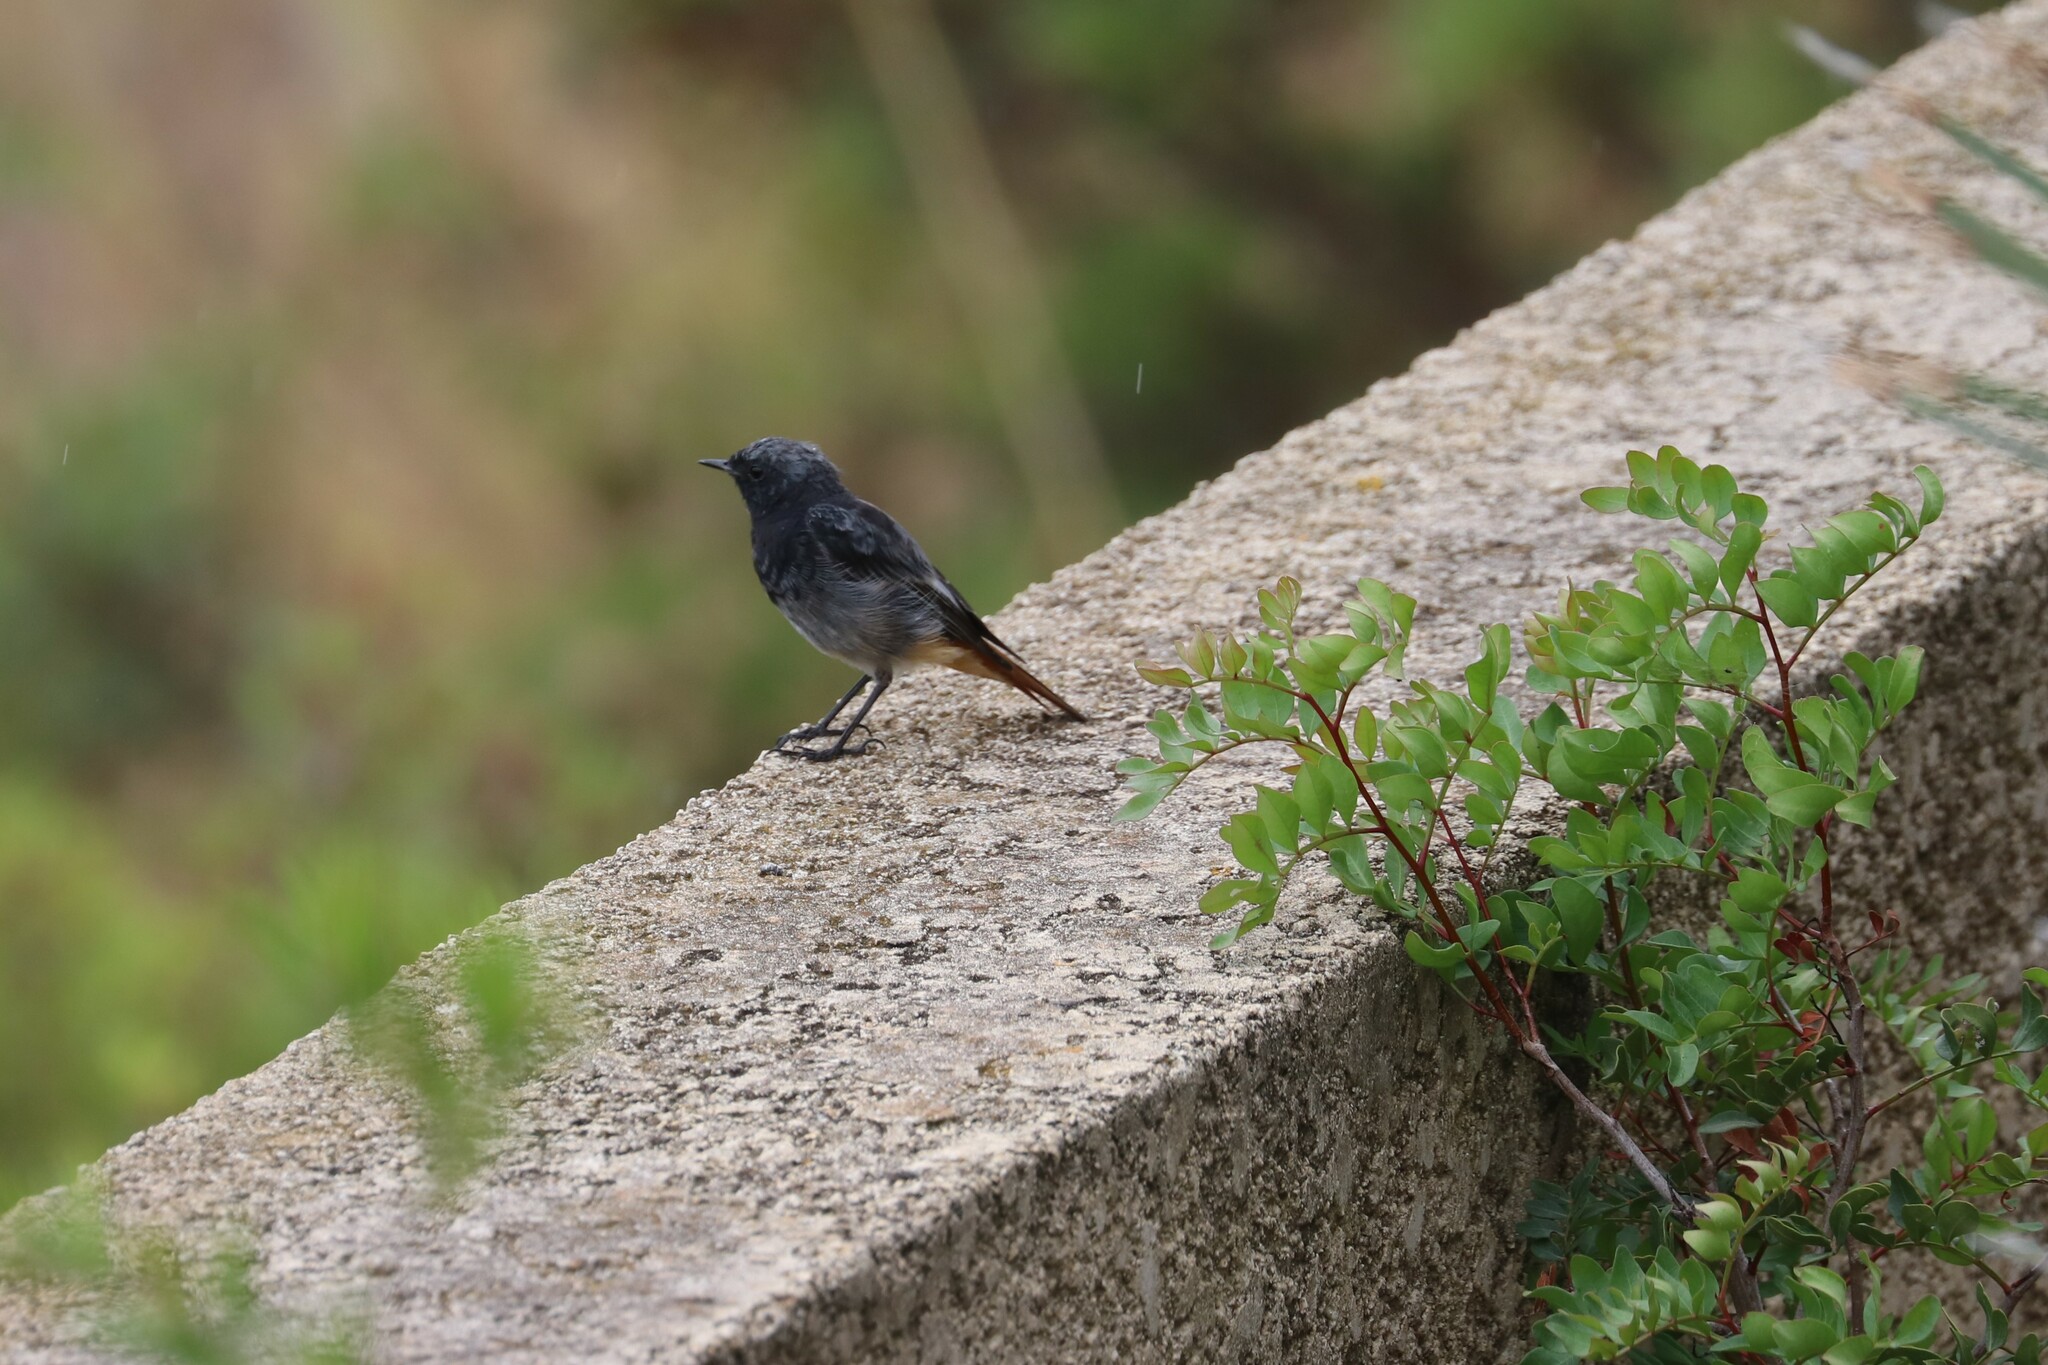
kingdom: Animalia
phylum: Chordata
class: Aves
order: Passeriformes
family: Muscicapidae
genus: Phoenicurus
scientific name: Phoenicurus ochruros
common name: Black redstart
